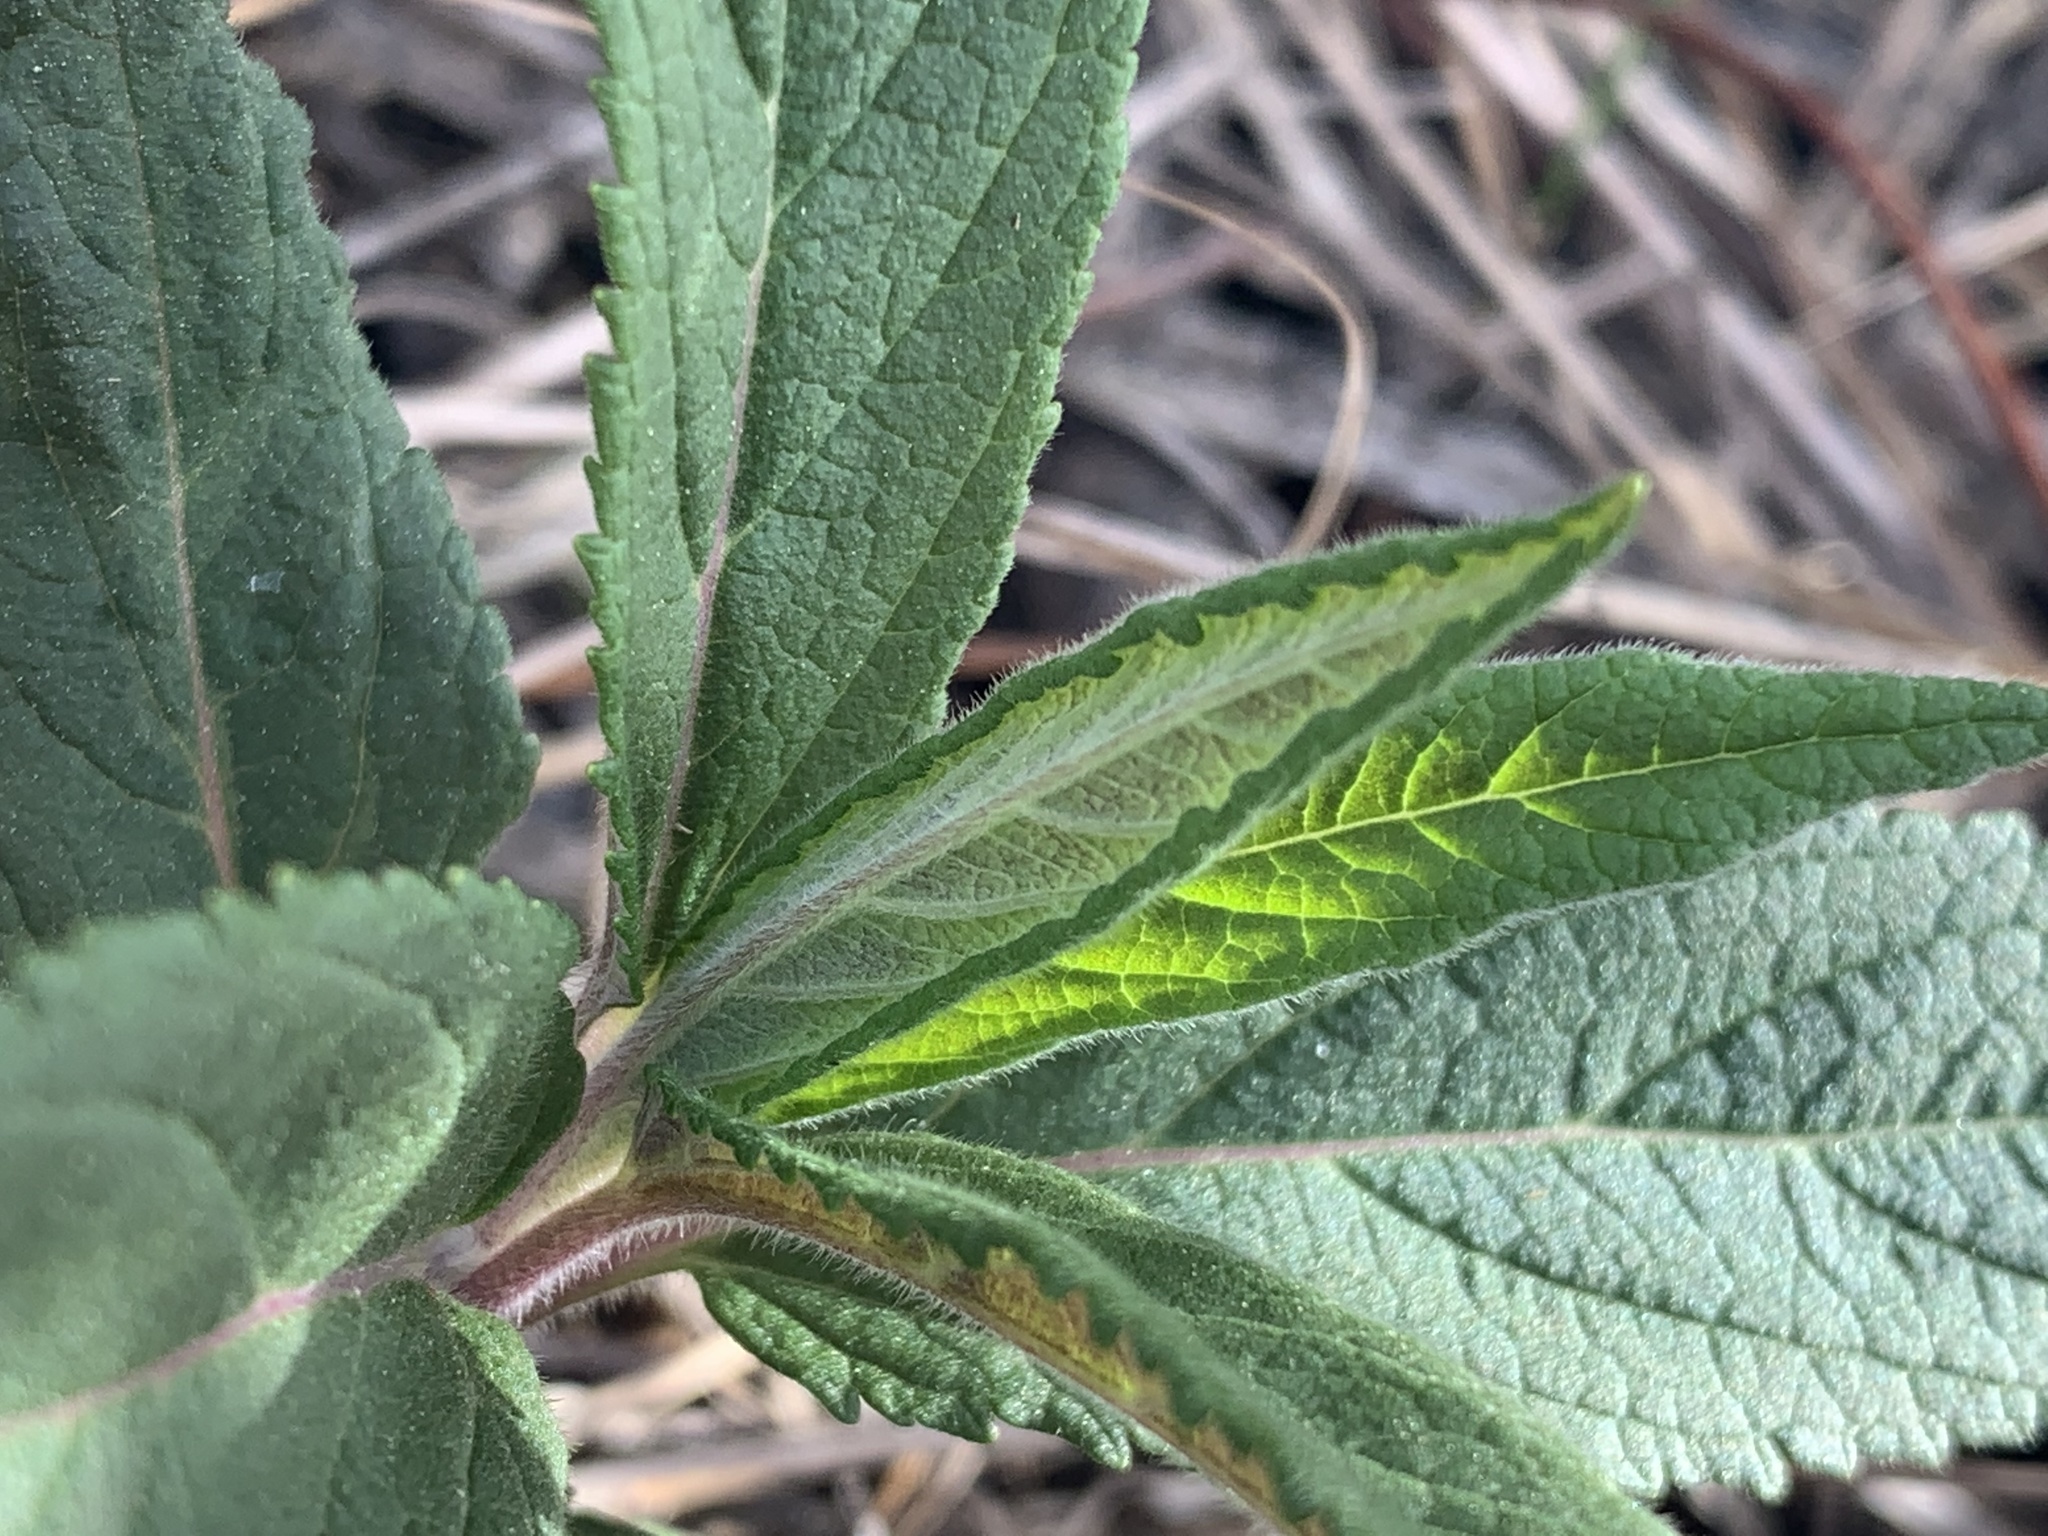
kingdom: Plantae
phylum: Tracheophyta
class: Magnoliopsida
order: Lamiales
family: Lamiaceae
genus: Teucrium
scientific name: Teucrium canadense
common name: American germander
